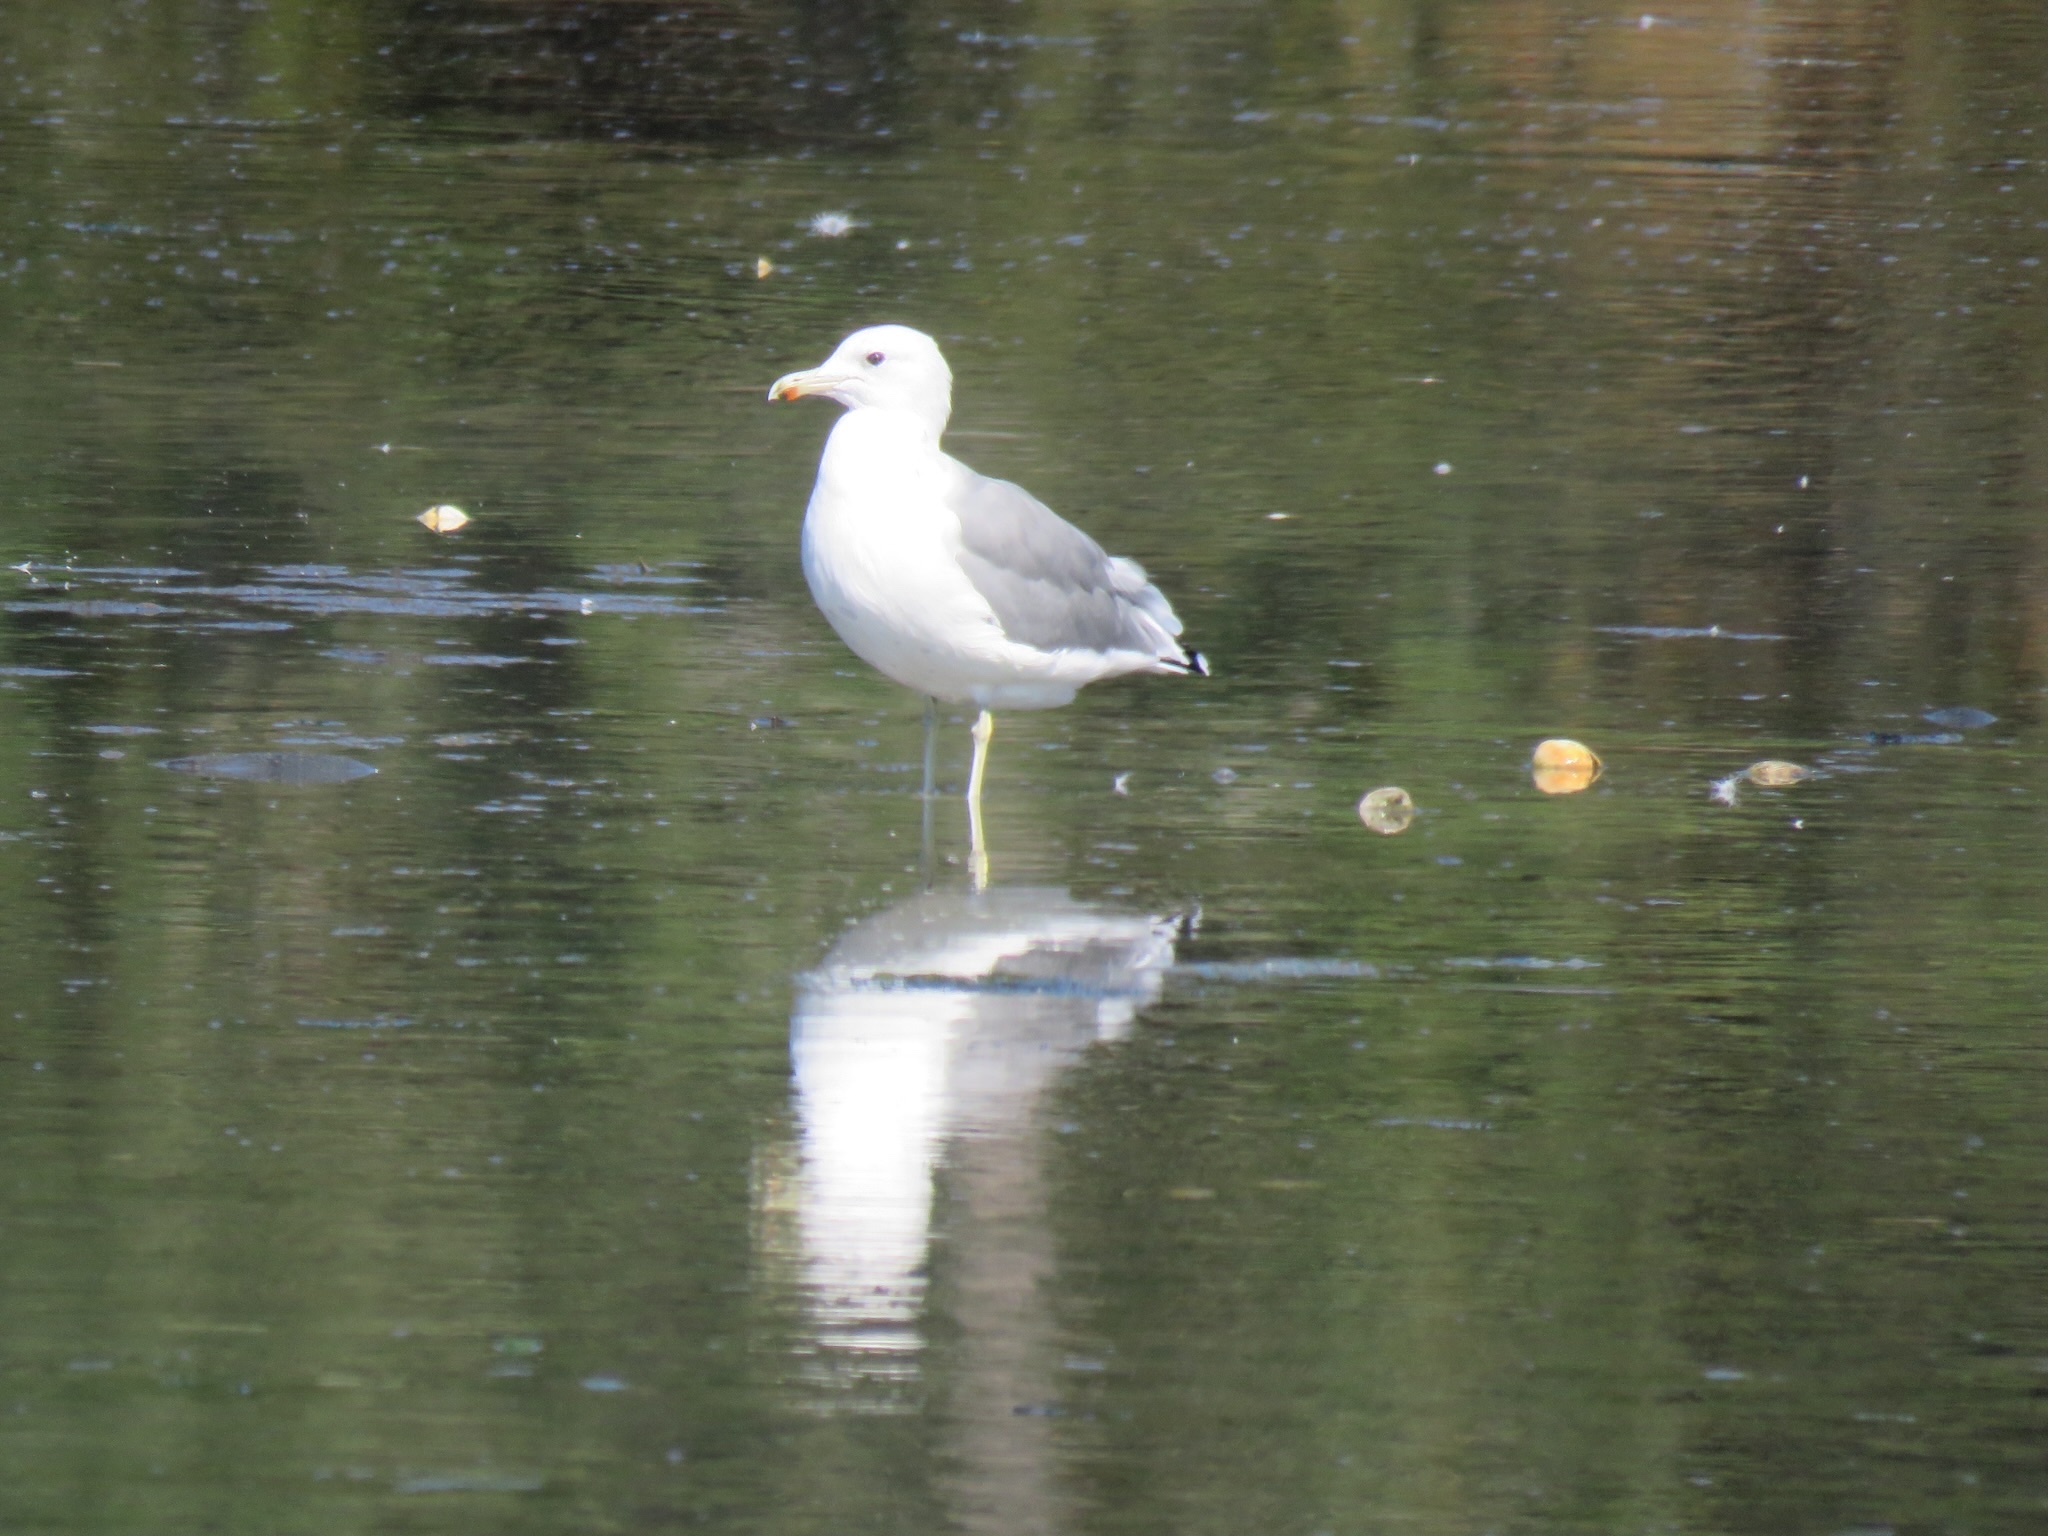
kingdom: Animalia
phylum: Chordata
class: Aves
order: Charadriiformes
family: Laridae
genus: Larus
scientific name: Larus californicus
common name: California gull
